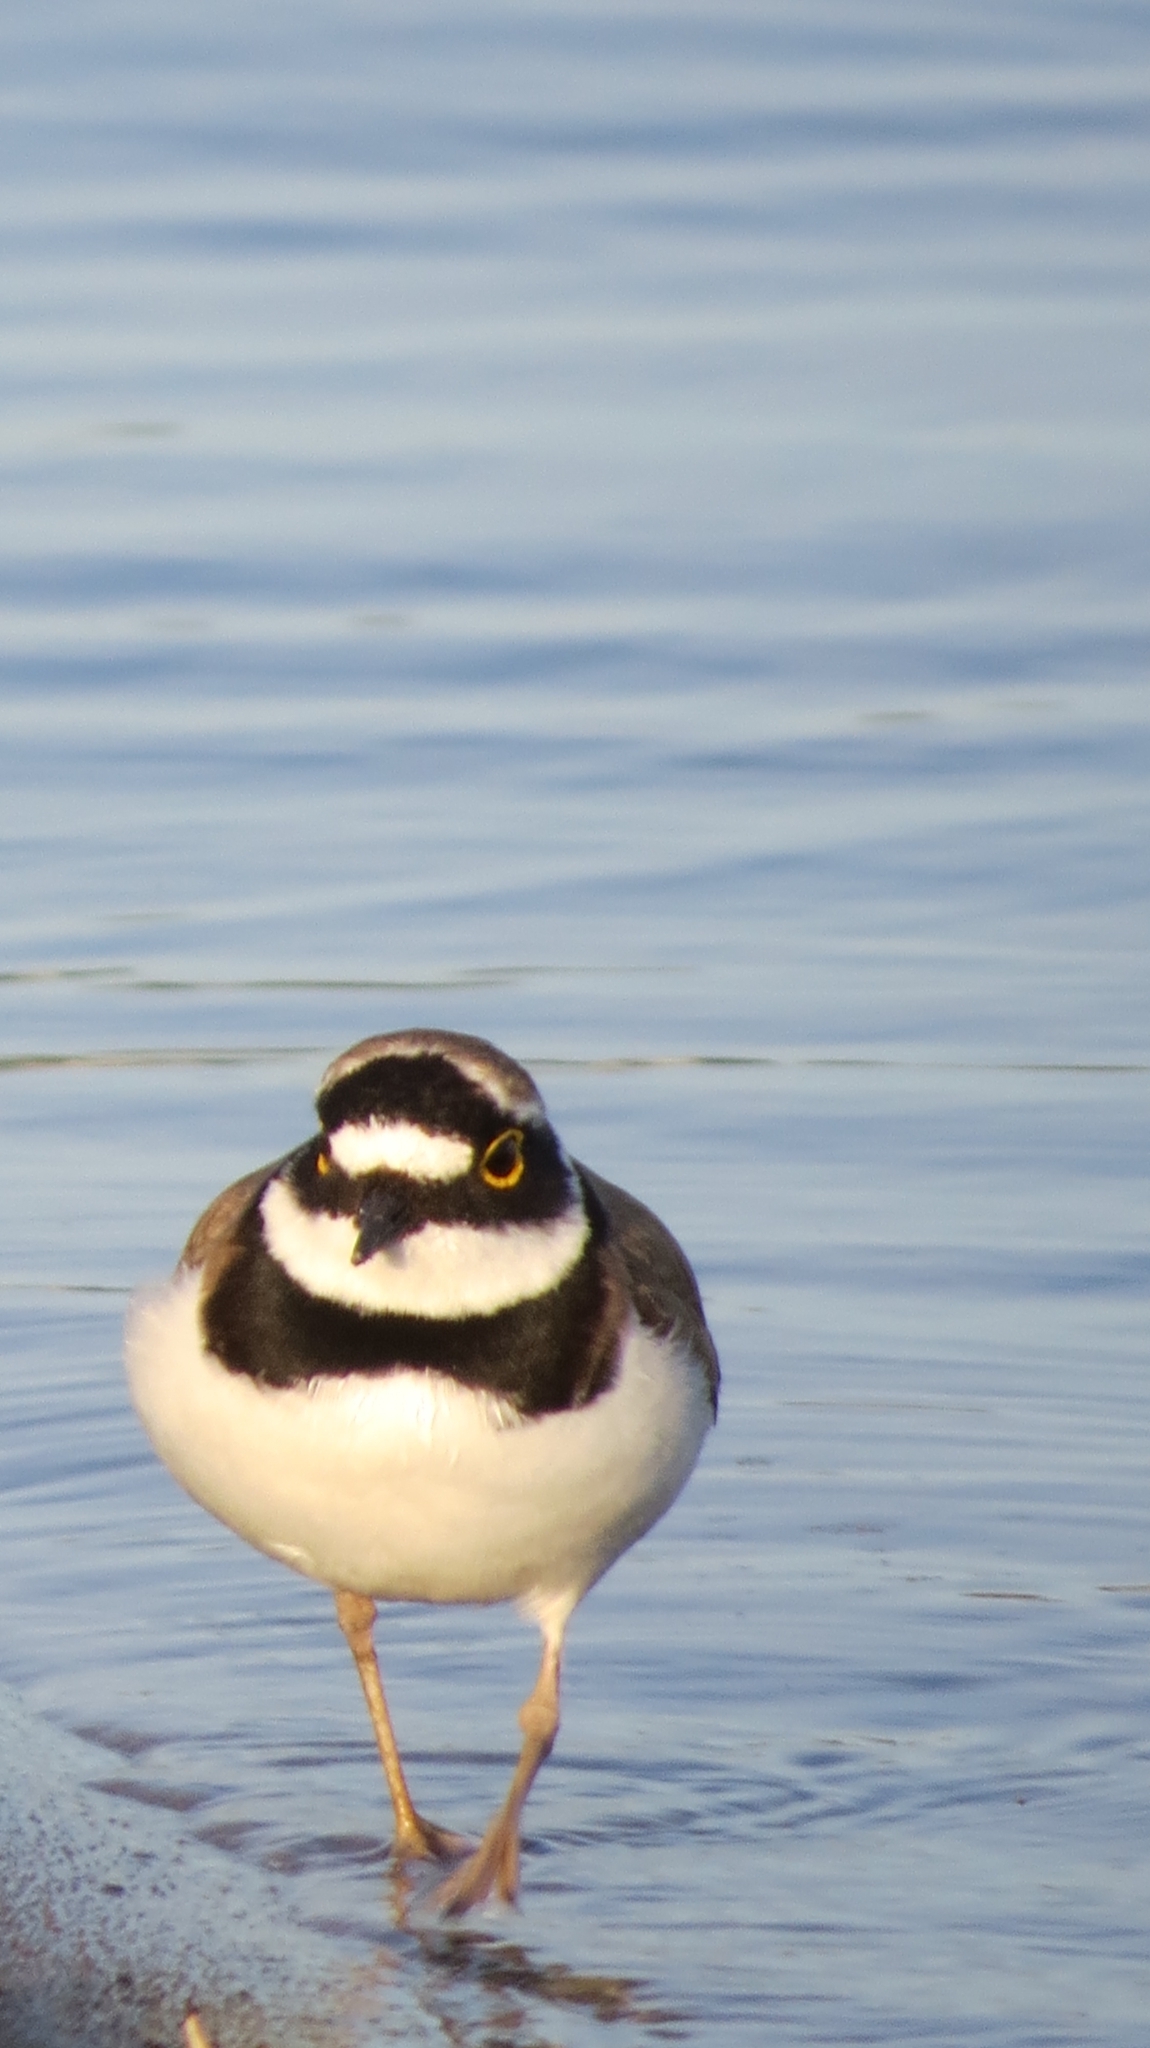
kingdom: Animalia
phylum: Chordata
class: Aves
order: Charadriiformes
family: Charadriidae
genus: Charadrius
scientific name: Charadrius dubius
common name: Little ringed plover
